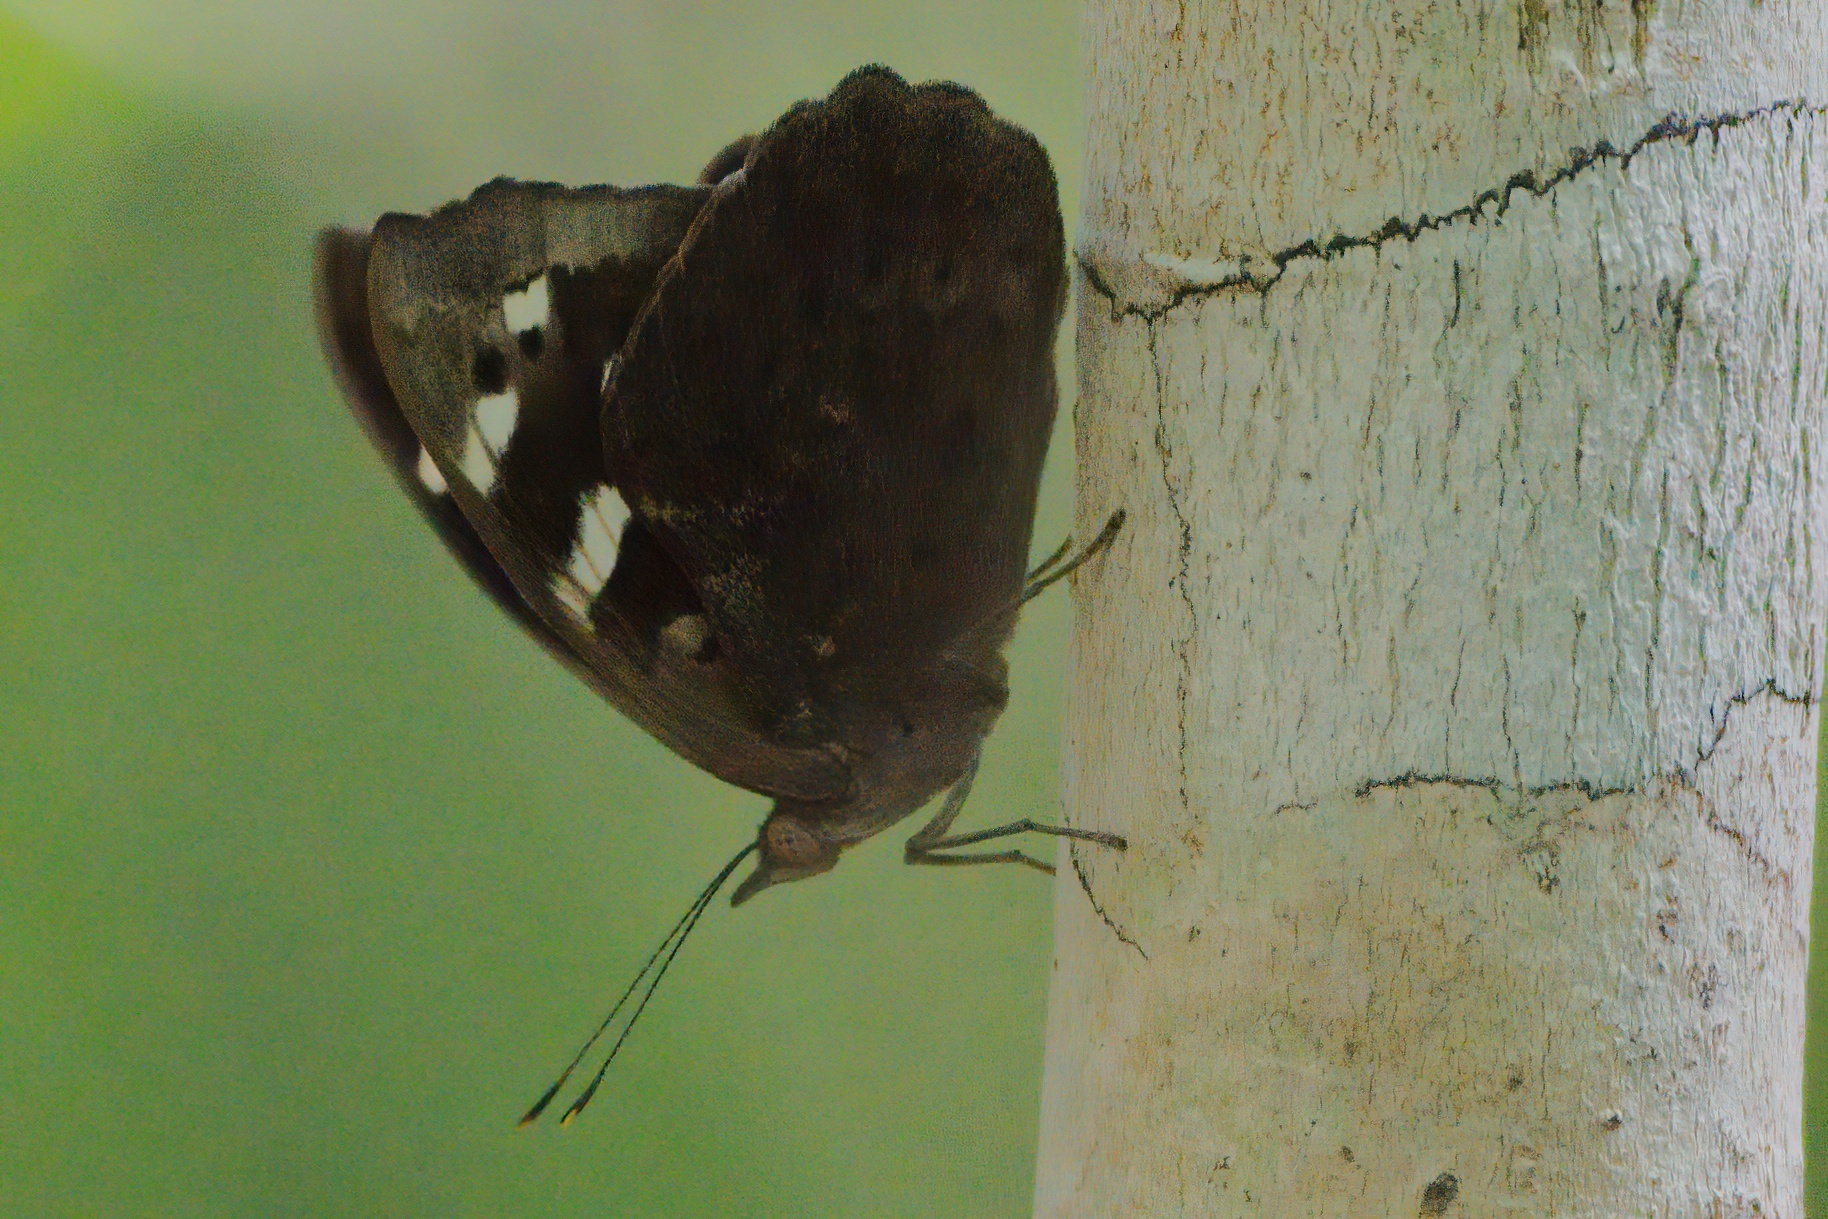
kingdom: Animalia
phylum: Arthropoda
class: Insecta
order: Lepidoptera
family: Nymphalidae
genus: Eunica
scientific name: Eunica tatila
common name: Florida purplewing
